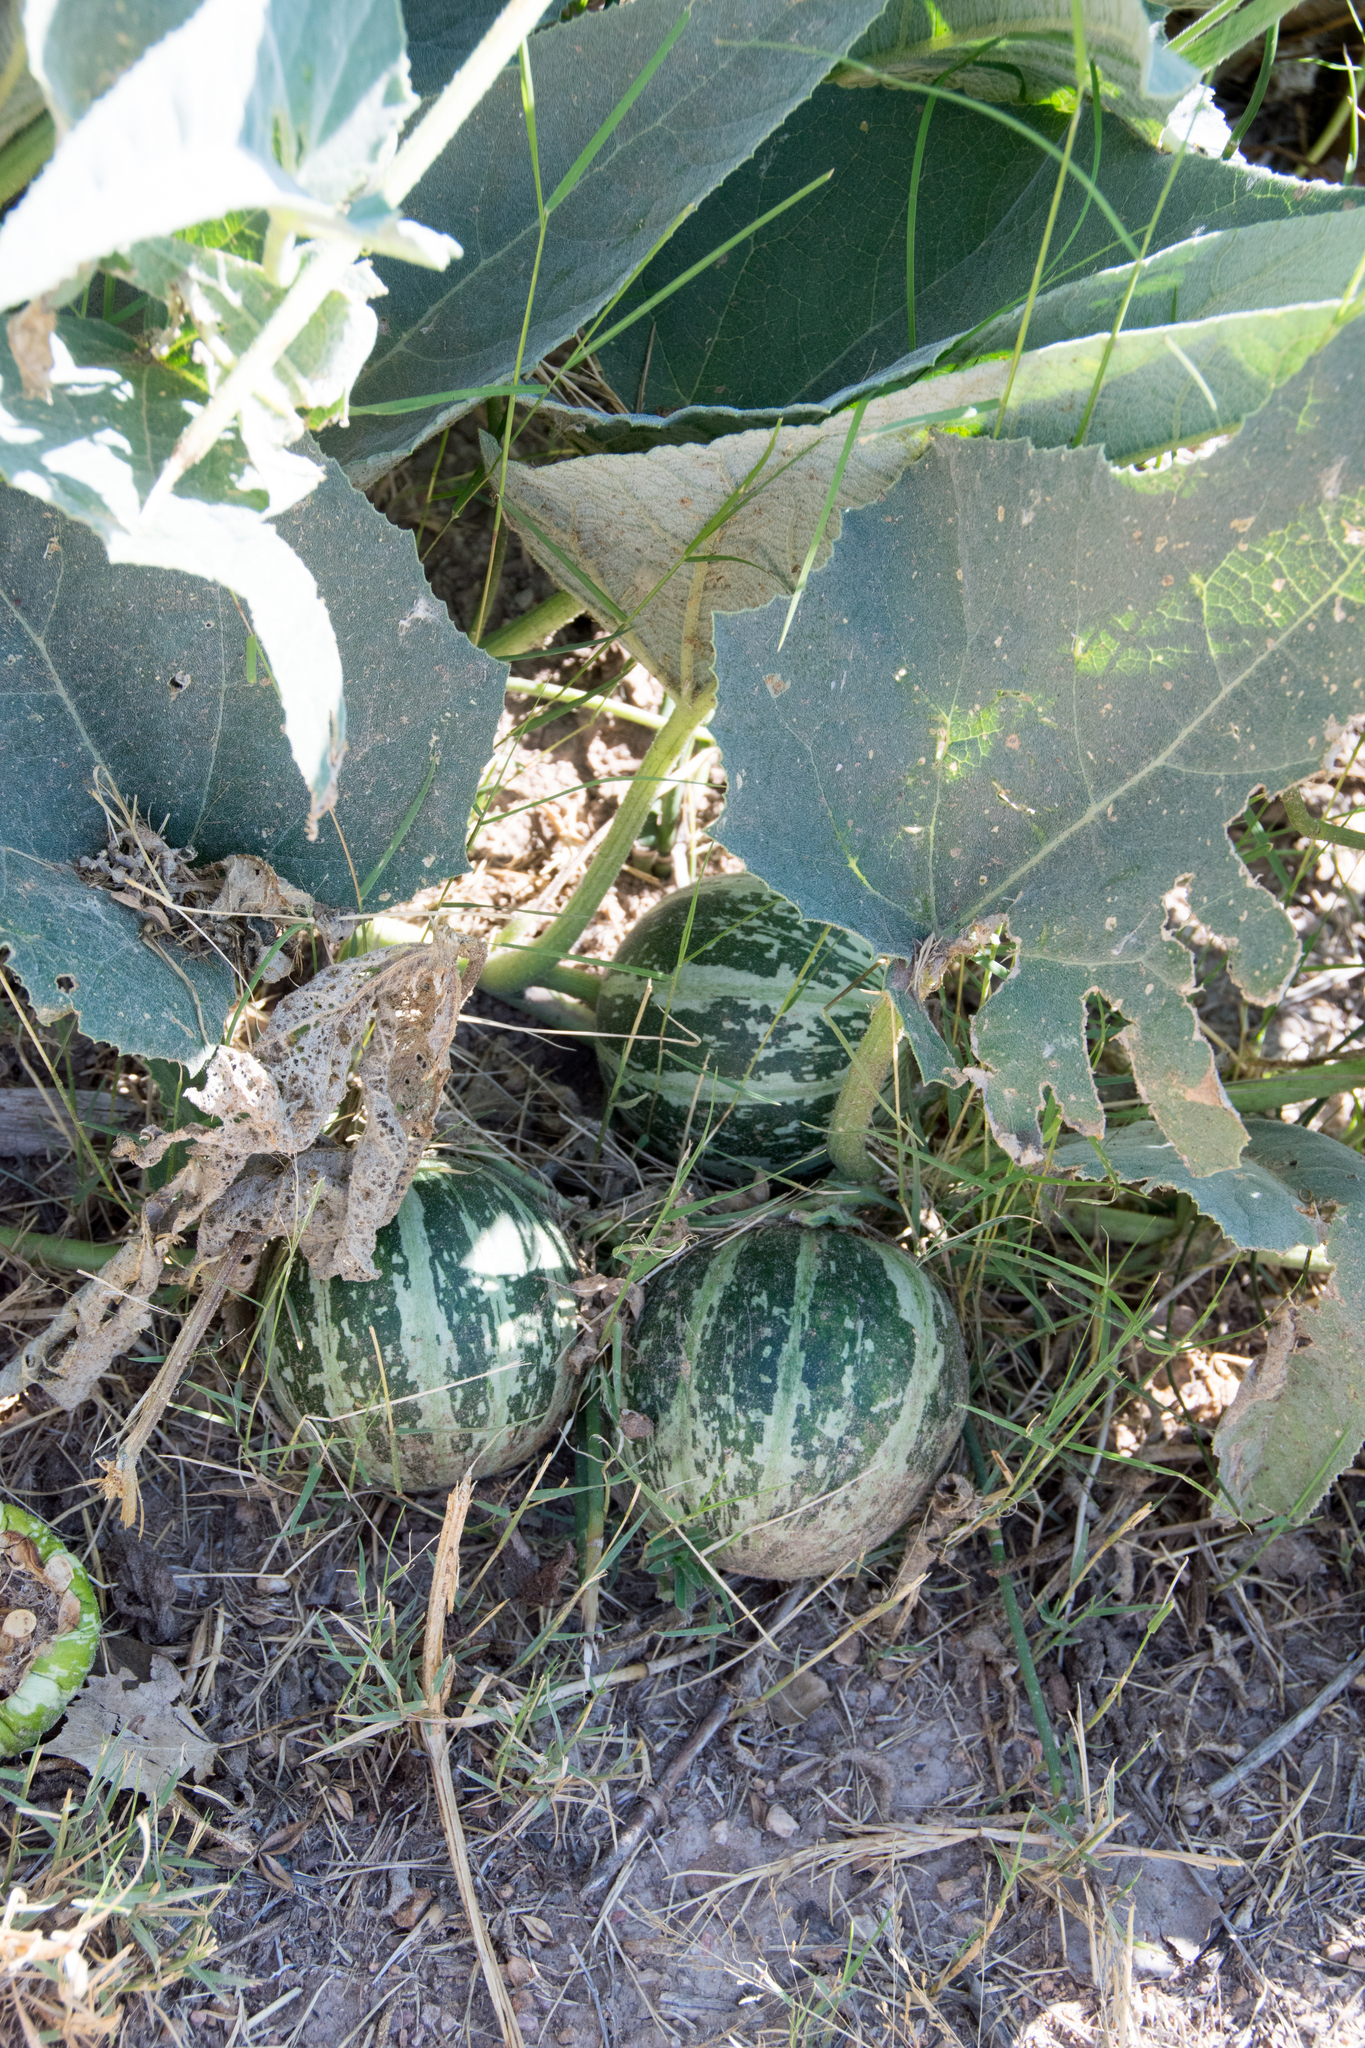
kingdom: Plantae
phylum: Tracheophyta
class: Magnoliopsida
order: Cucurbitales
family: Cucurbitaceae
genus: Cucurbita
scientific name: Cucurbita foetidissima
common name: Buffalo gourd
